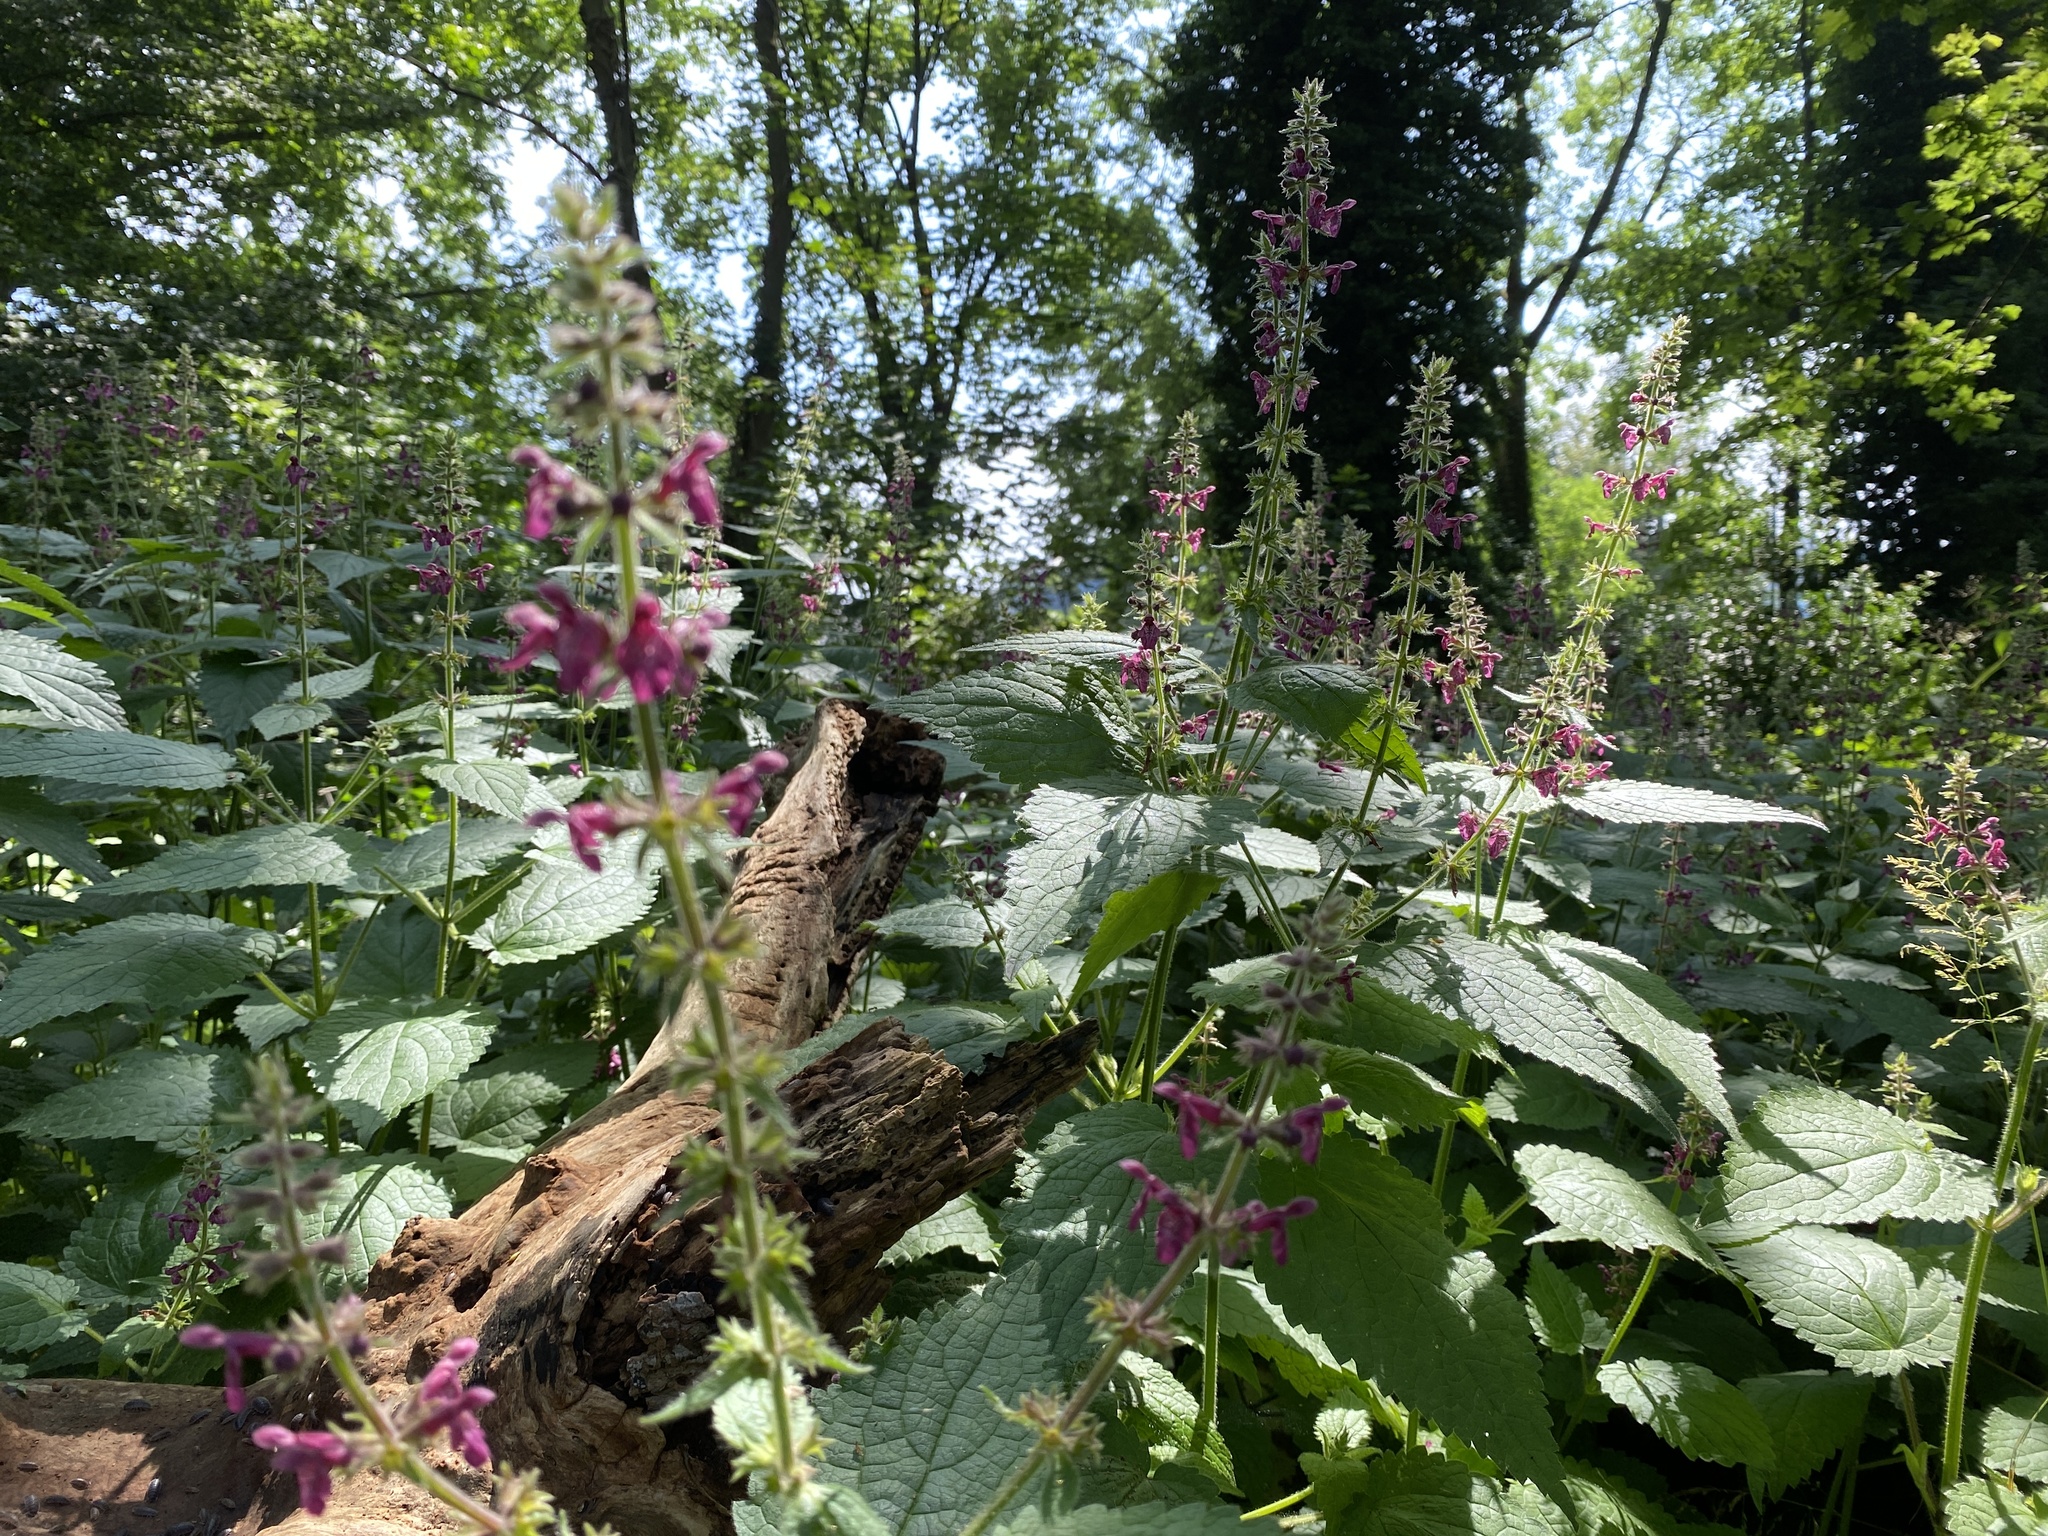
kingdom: Plantae
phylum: Tracheophyta
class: Magnoliopsida
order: Lamiales
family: Lamiaceae
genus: Stachys
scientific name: Stachys sylvatica
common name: Hedge woundwort
